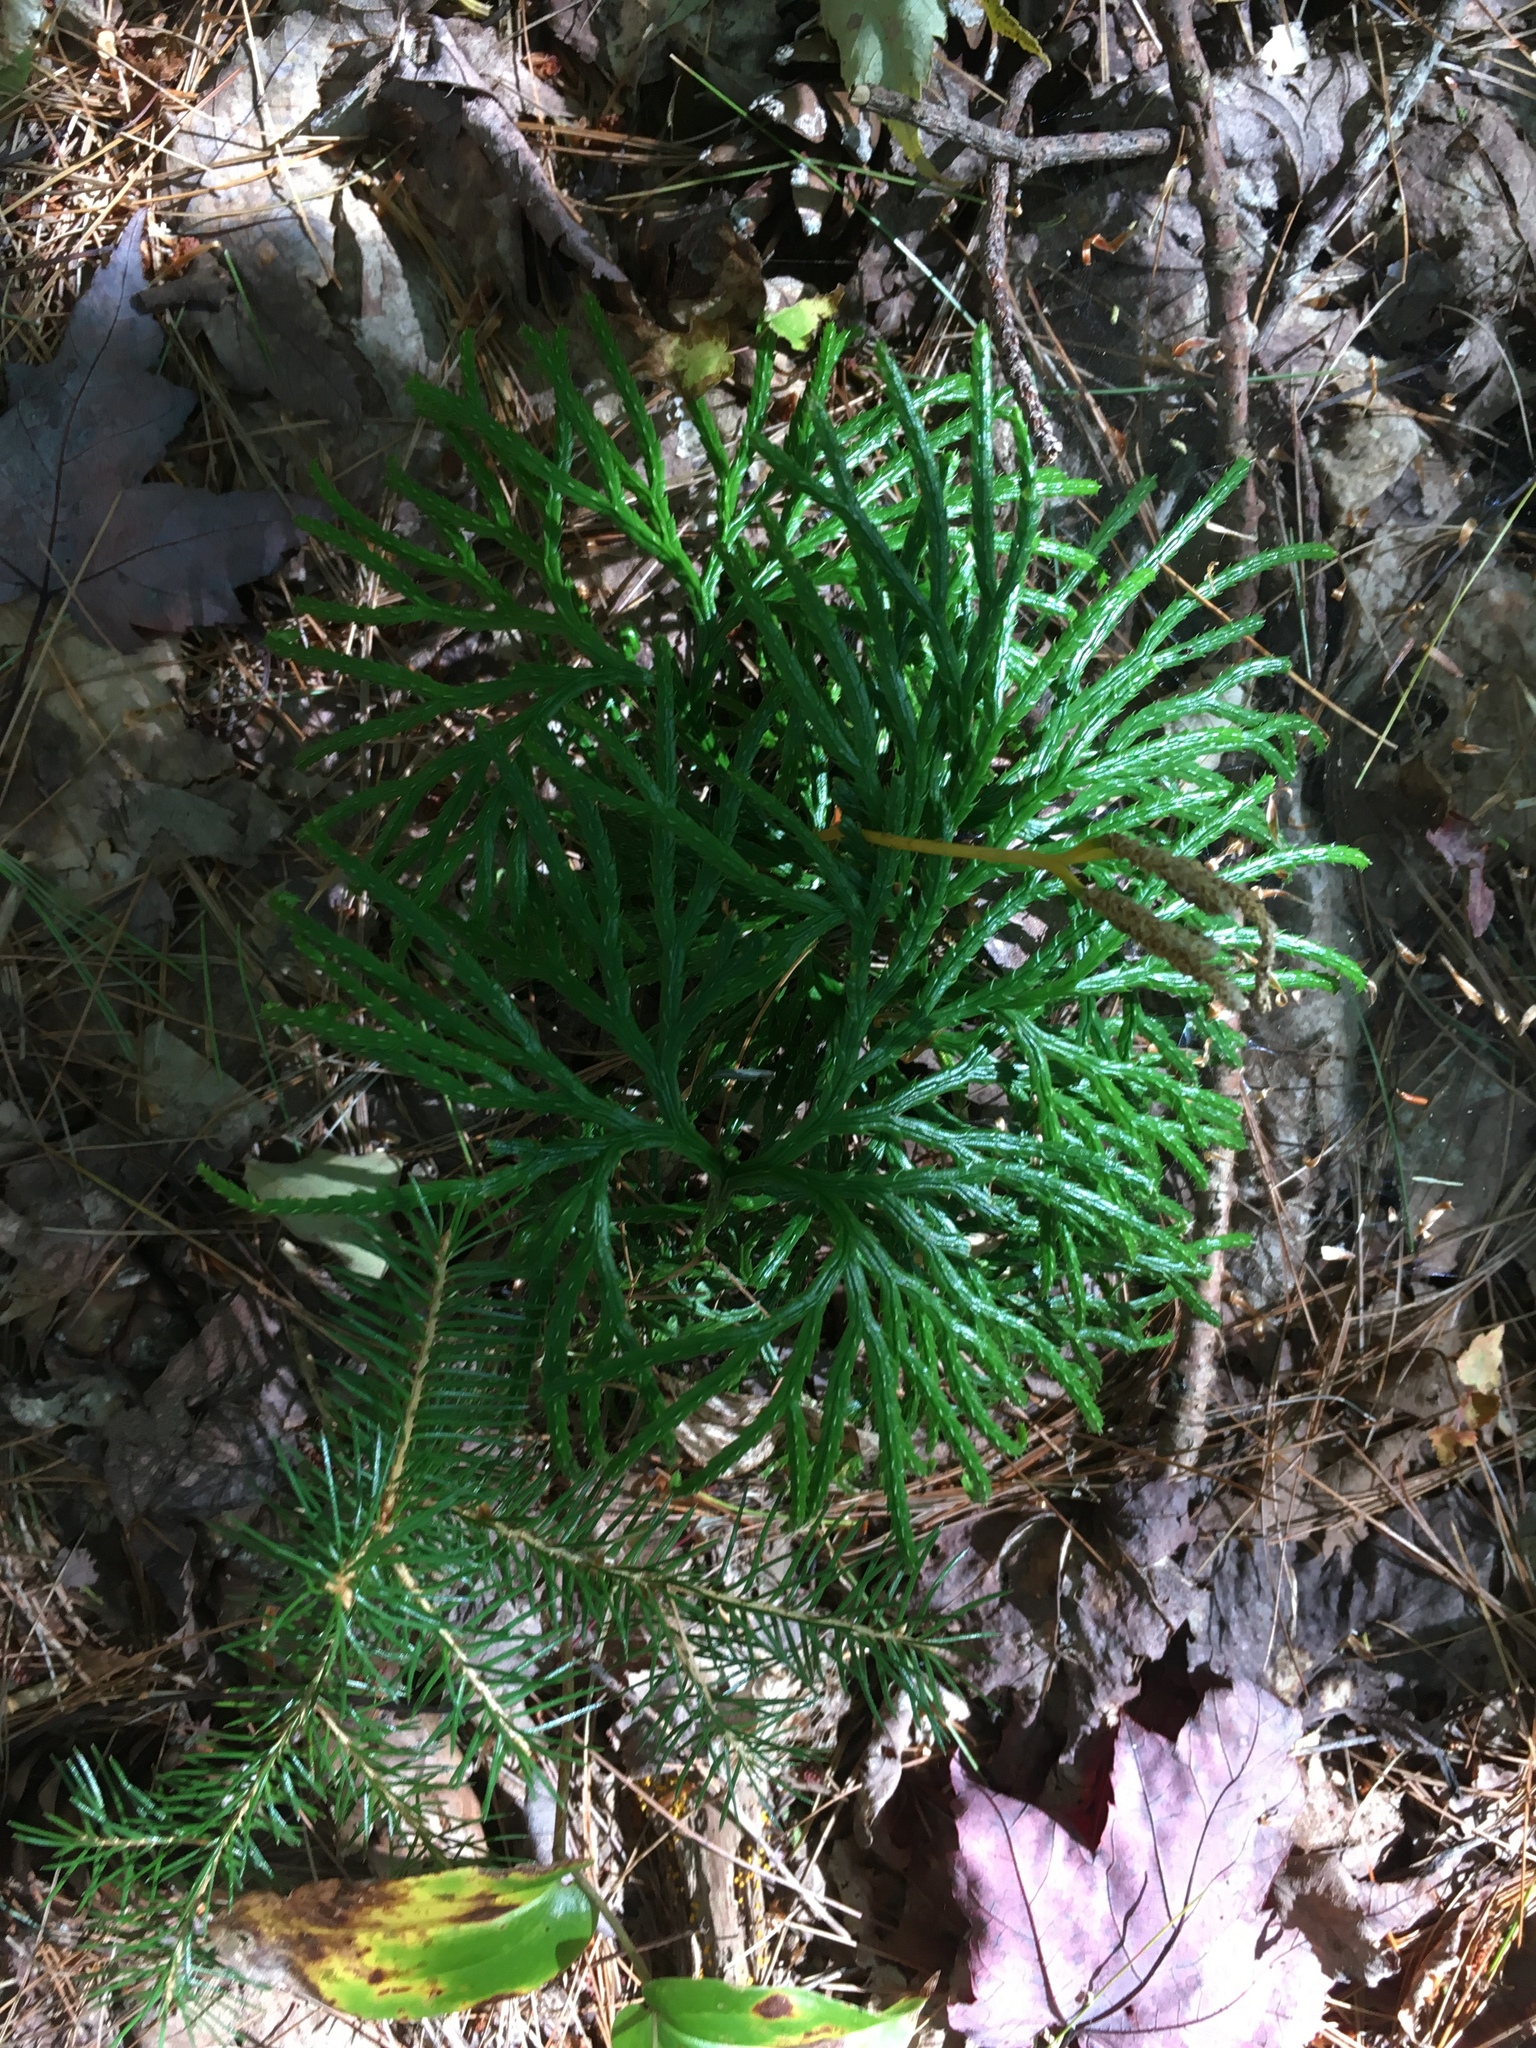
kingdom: Plantae
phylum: Tracheophyta
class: Lycopodiopsida
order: Lycopodiales
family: Lycopodiaceae
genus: Diphasiastrum
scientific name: Diphasiastrum digitatum
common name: Southern running-pine
